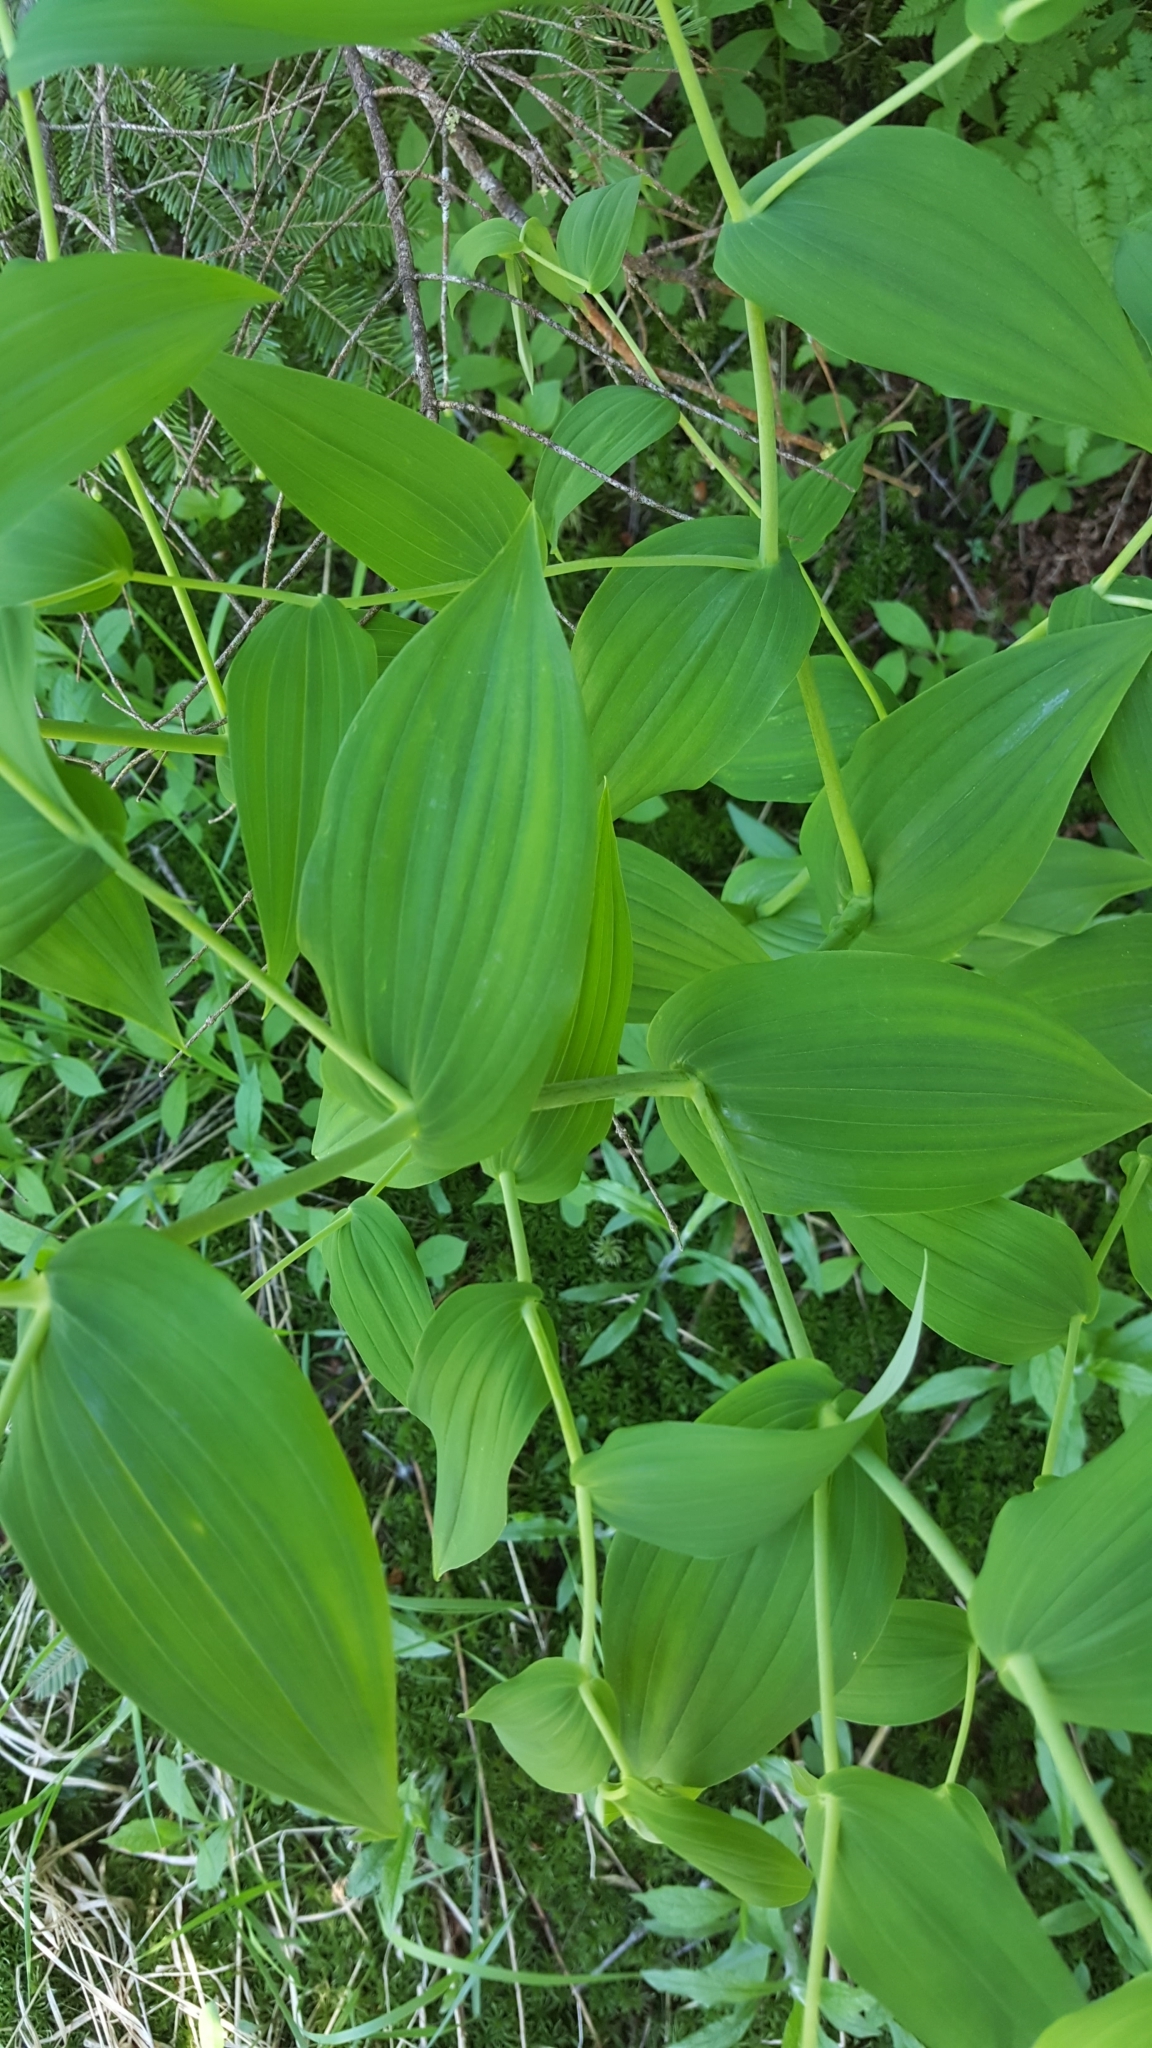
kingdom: Plantae
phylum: Tracheophyta
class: Liliopsida
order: Liliales
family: Liliaceae
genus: Streptopus
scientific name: Streptopus amplexifolius
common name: Clasp twisted stalk
